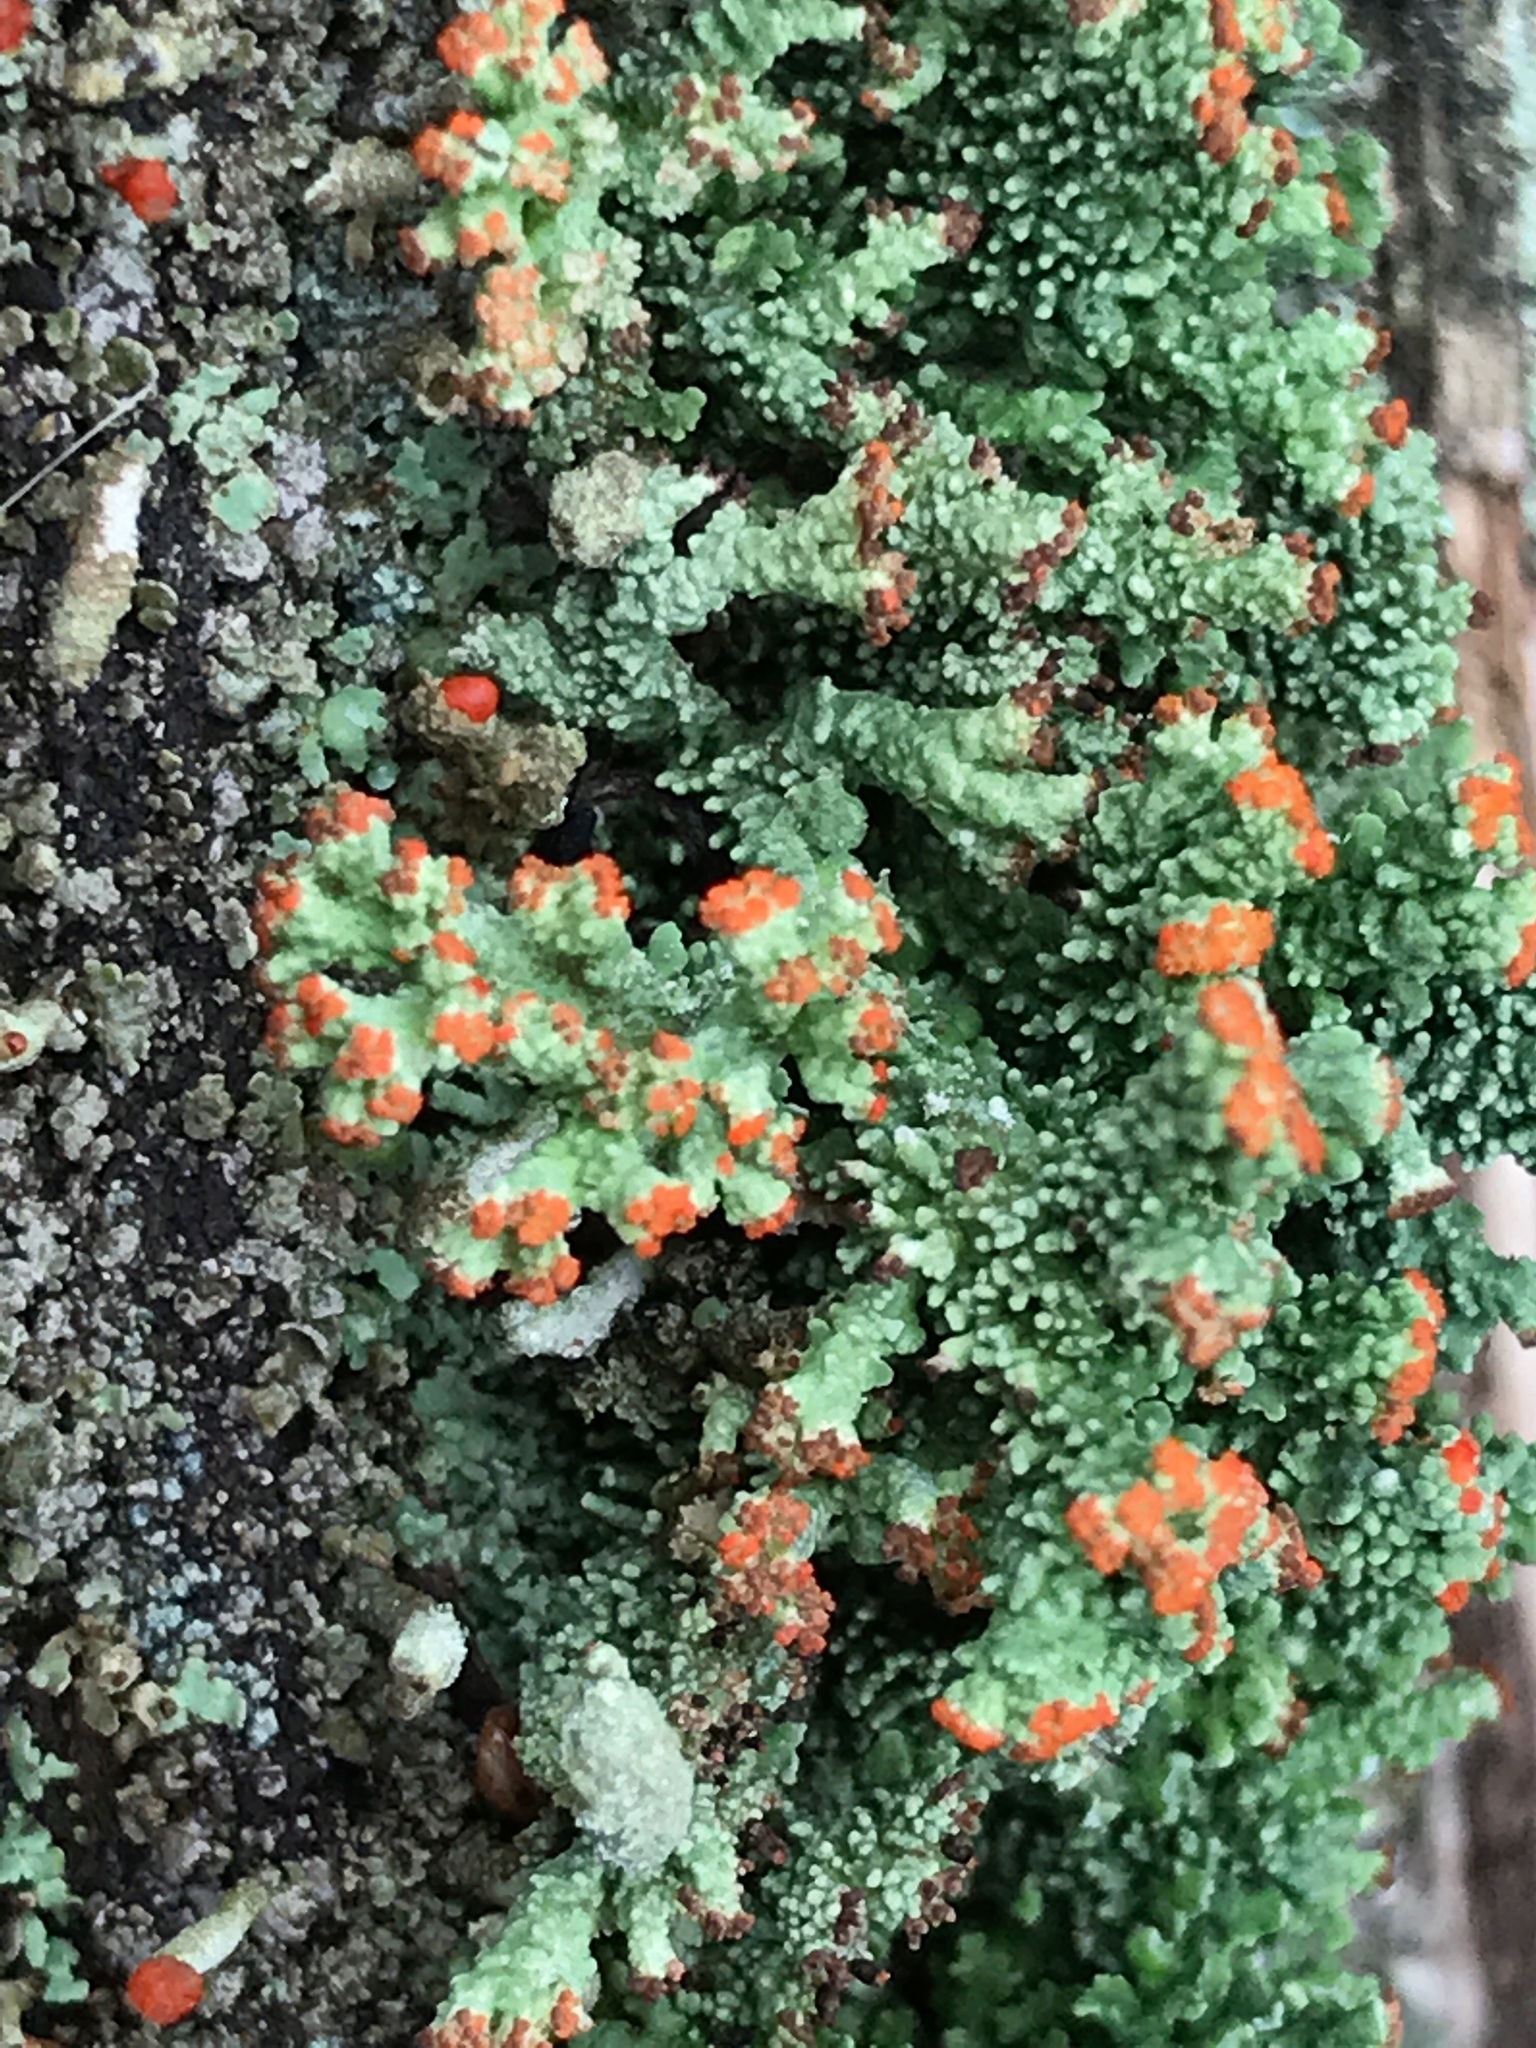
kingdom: Fungi
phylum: Ascomycota
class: Lecanoromycetes
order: Lecanorales
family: Cladoniaceae
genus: Cladonia
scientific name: Cladonia cristatella
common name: British soldier lichen
